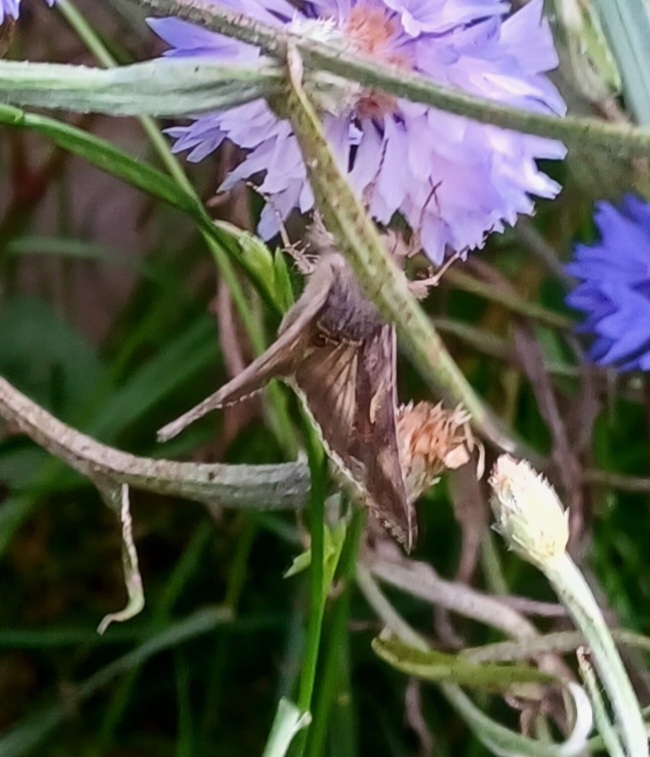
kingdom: Animalia
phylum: Arthropoda
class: Insecta
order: Lepidoptera
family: Noctuidae
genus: Autographa
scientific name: Autographa gamma
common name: Silver y
